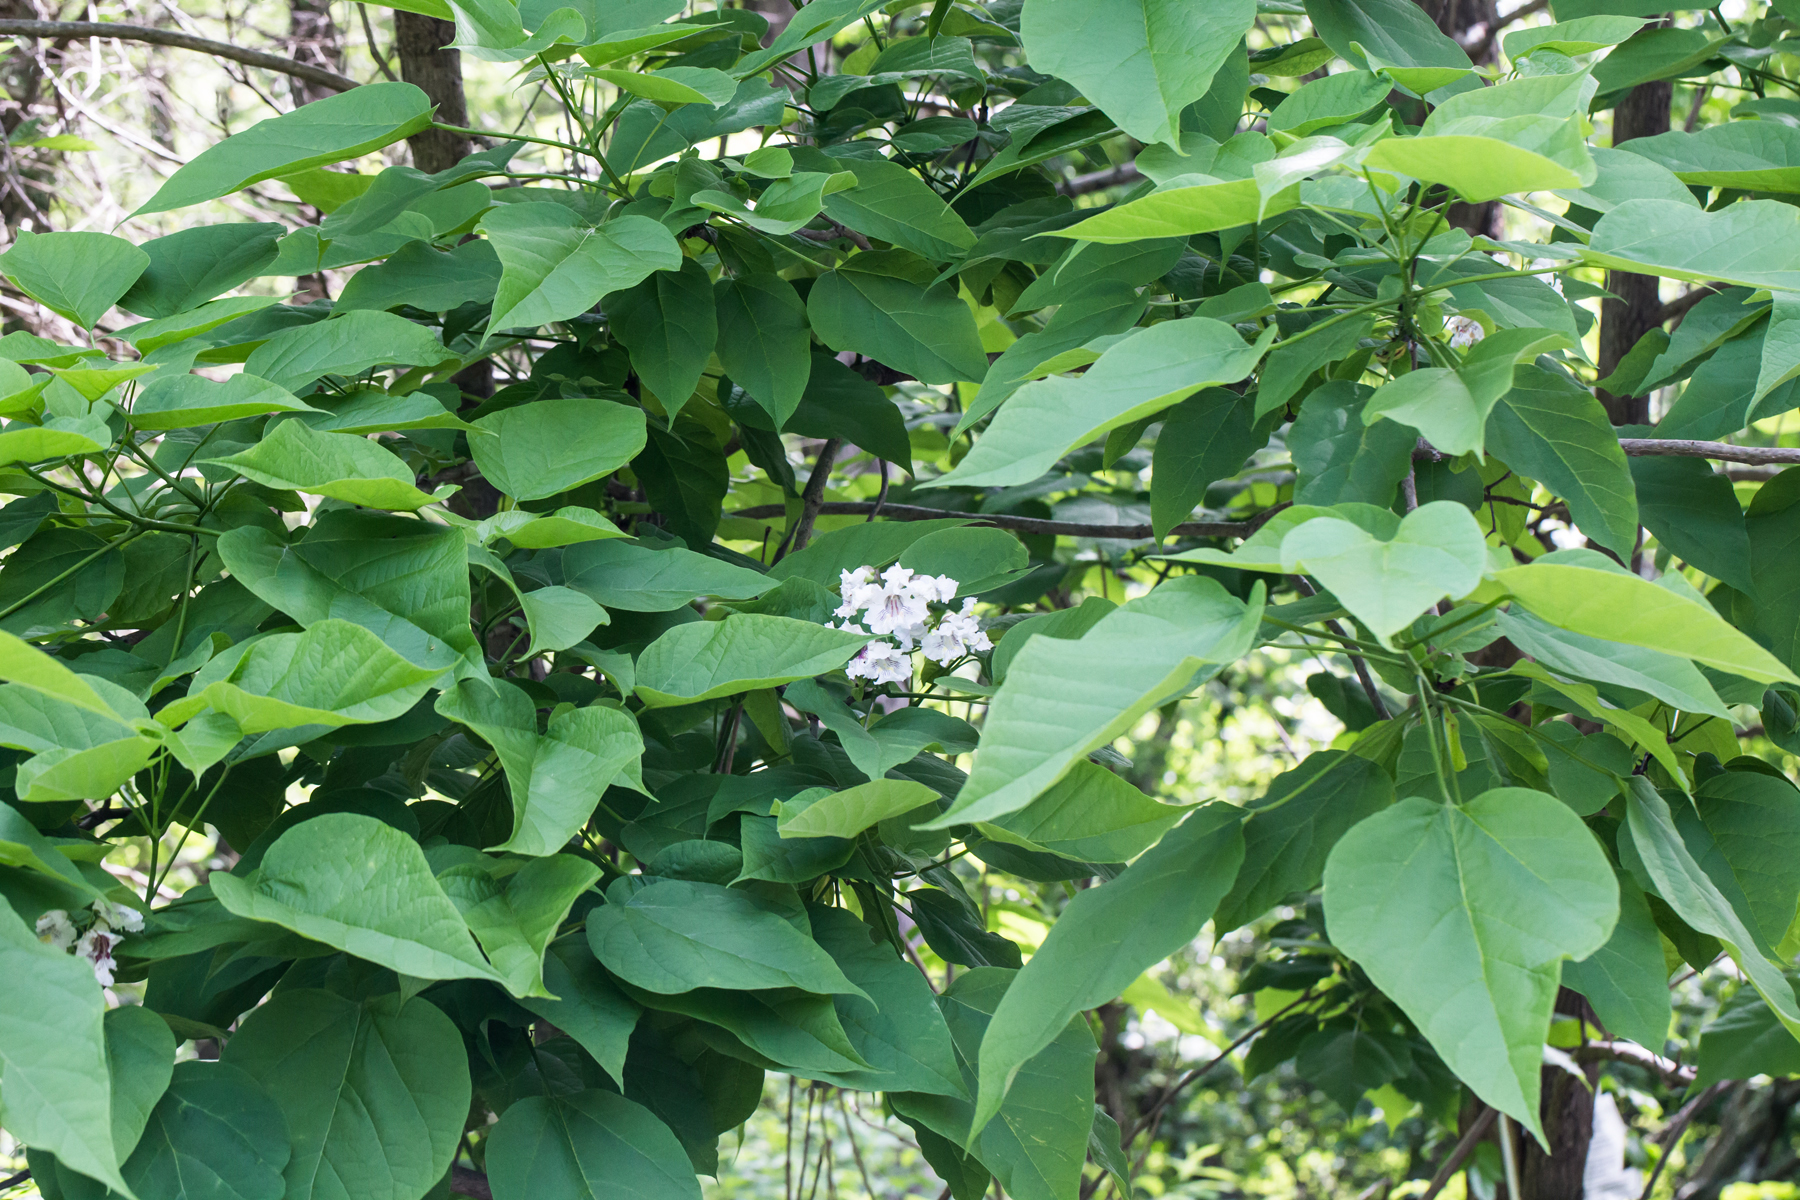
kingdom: Plantae
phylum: Tracheophyta
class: Magnoliopsida
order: Lamiales
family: Bignoniaceae
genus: Catalpa
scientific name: Catalpa speciosa
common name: Northern catalpa
